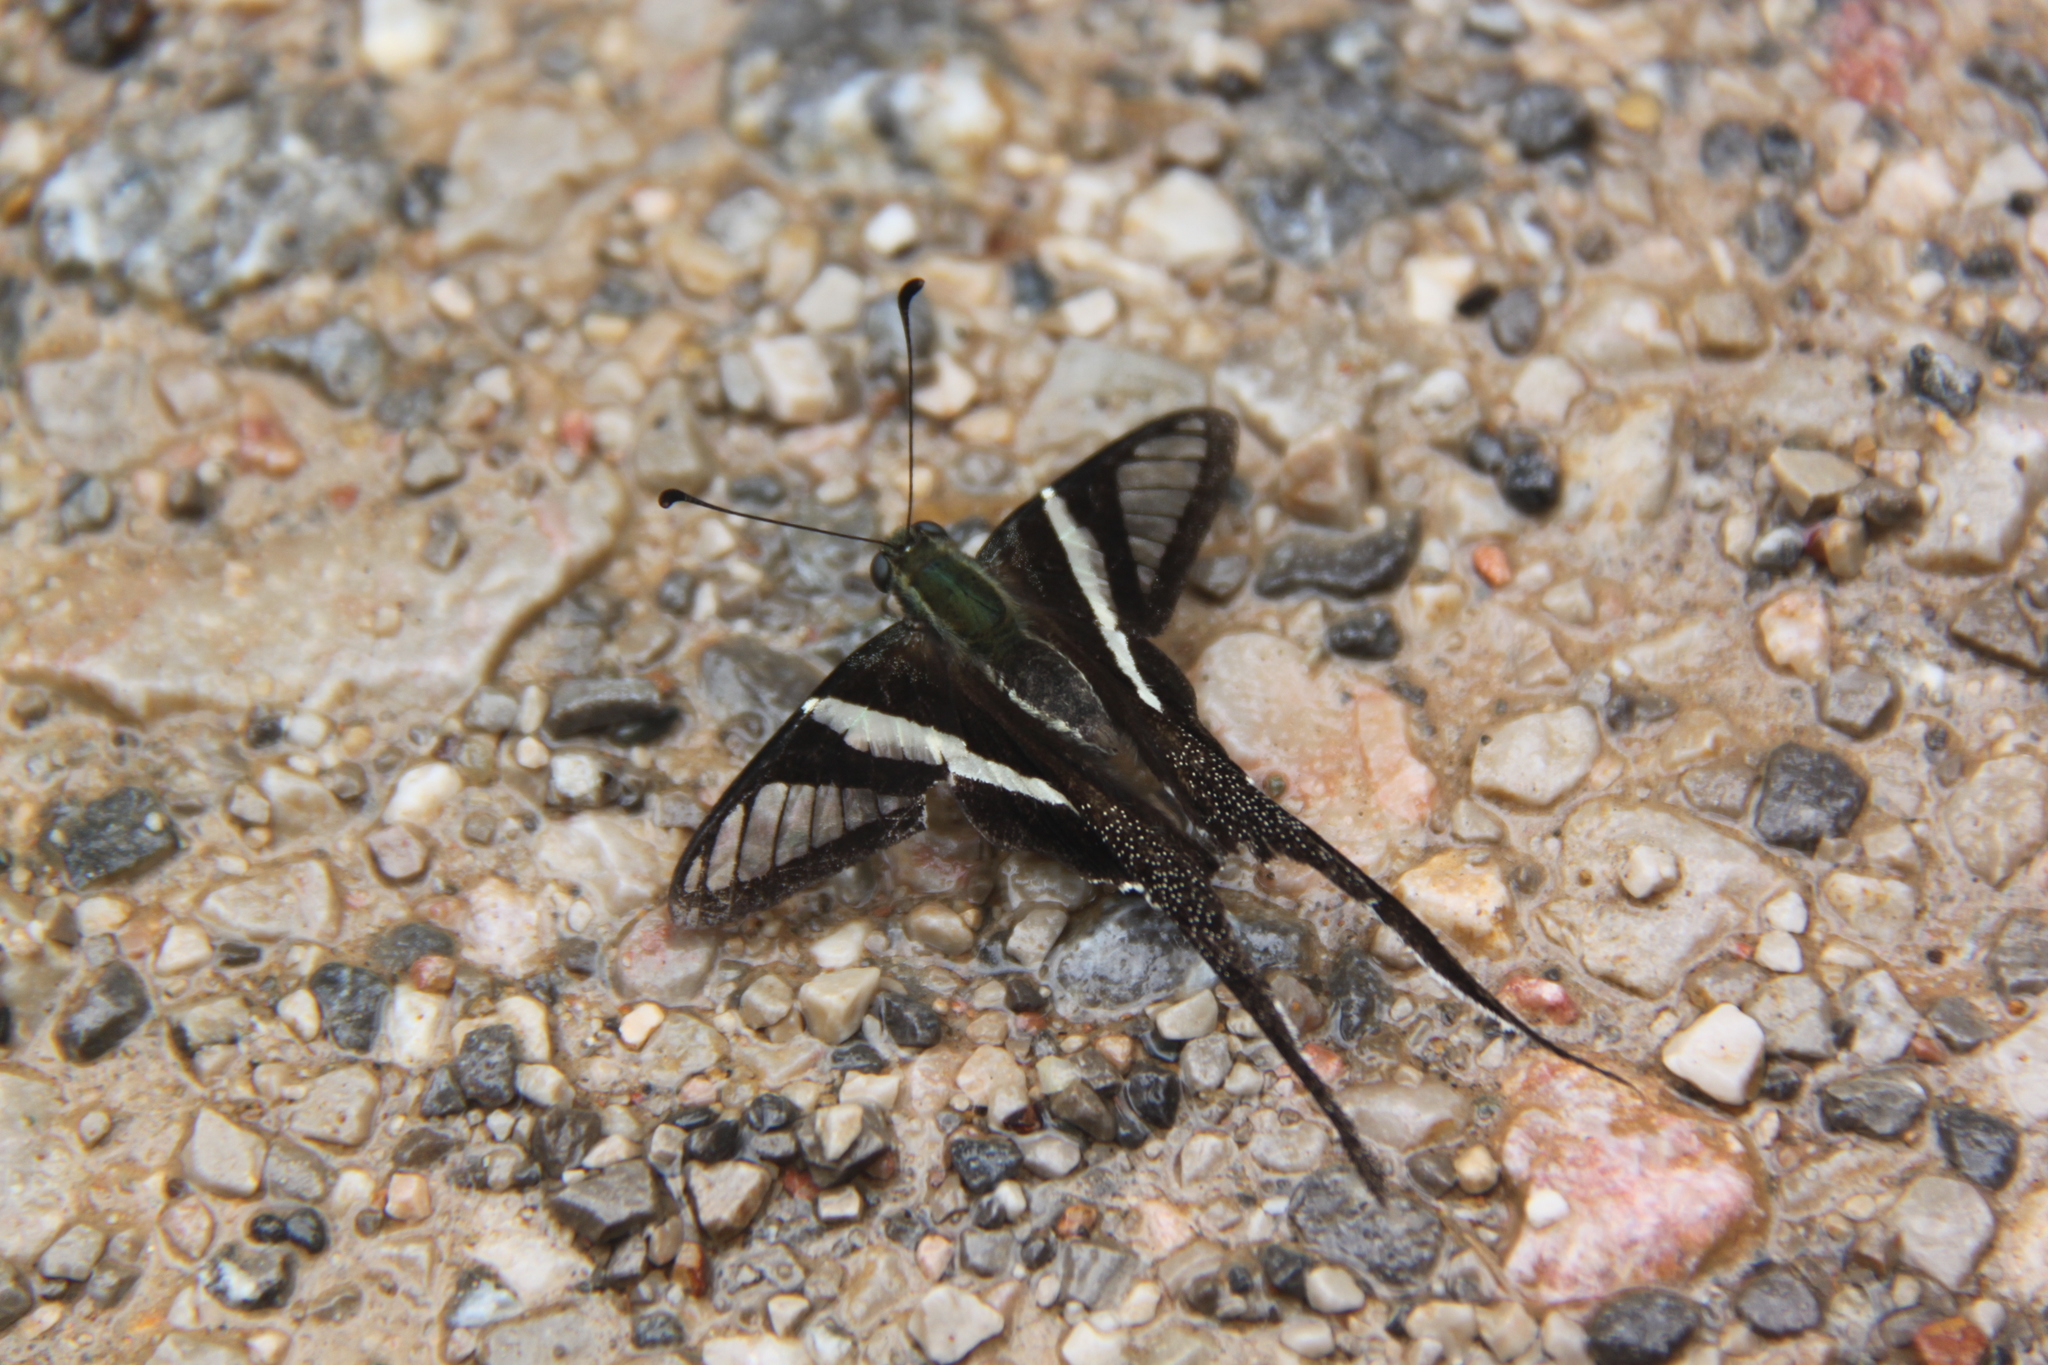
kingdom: Animalia
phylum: Arthropoda
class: Insecta
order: Lepidoptera
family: Papilionidae
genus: Lamproptera
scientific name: Lamproptera curius
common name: White dragontail
